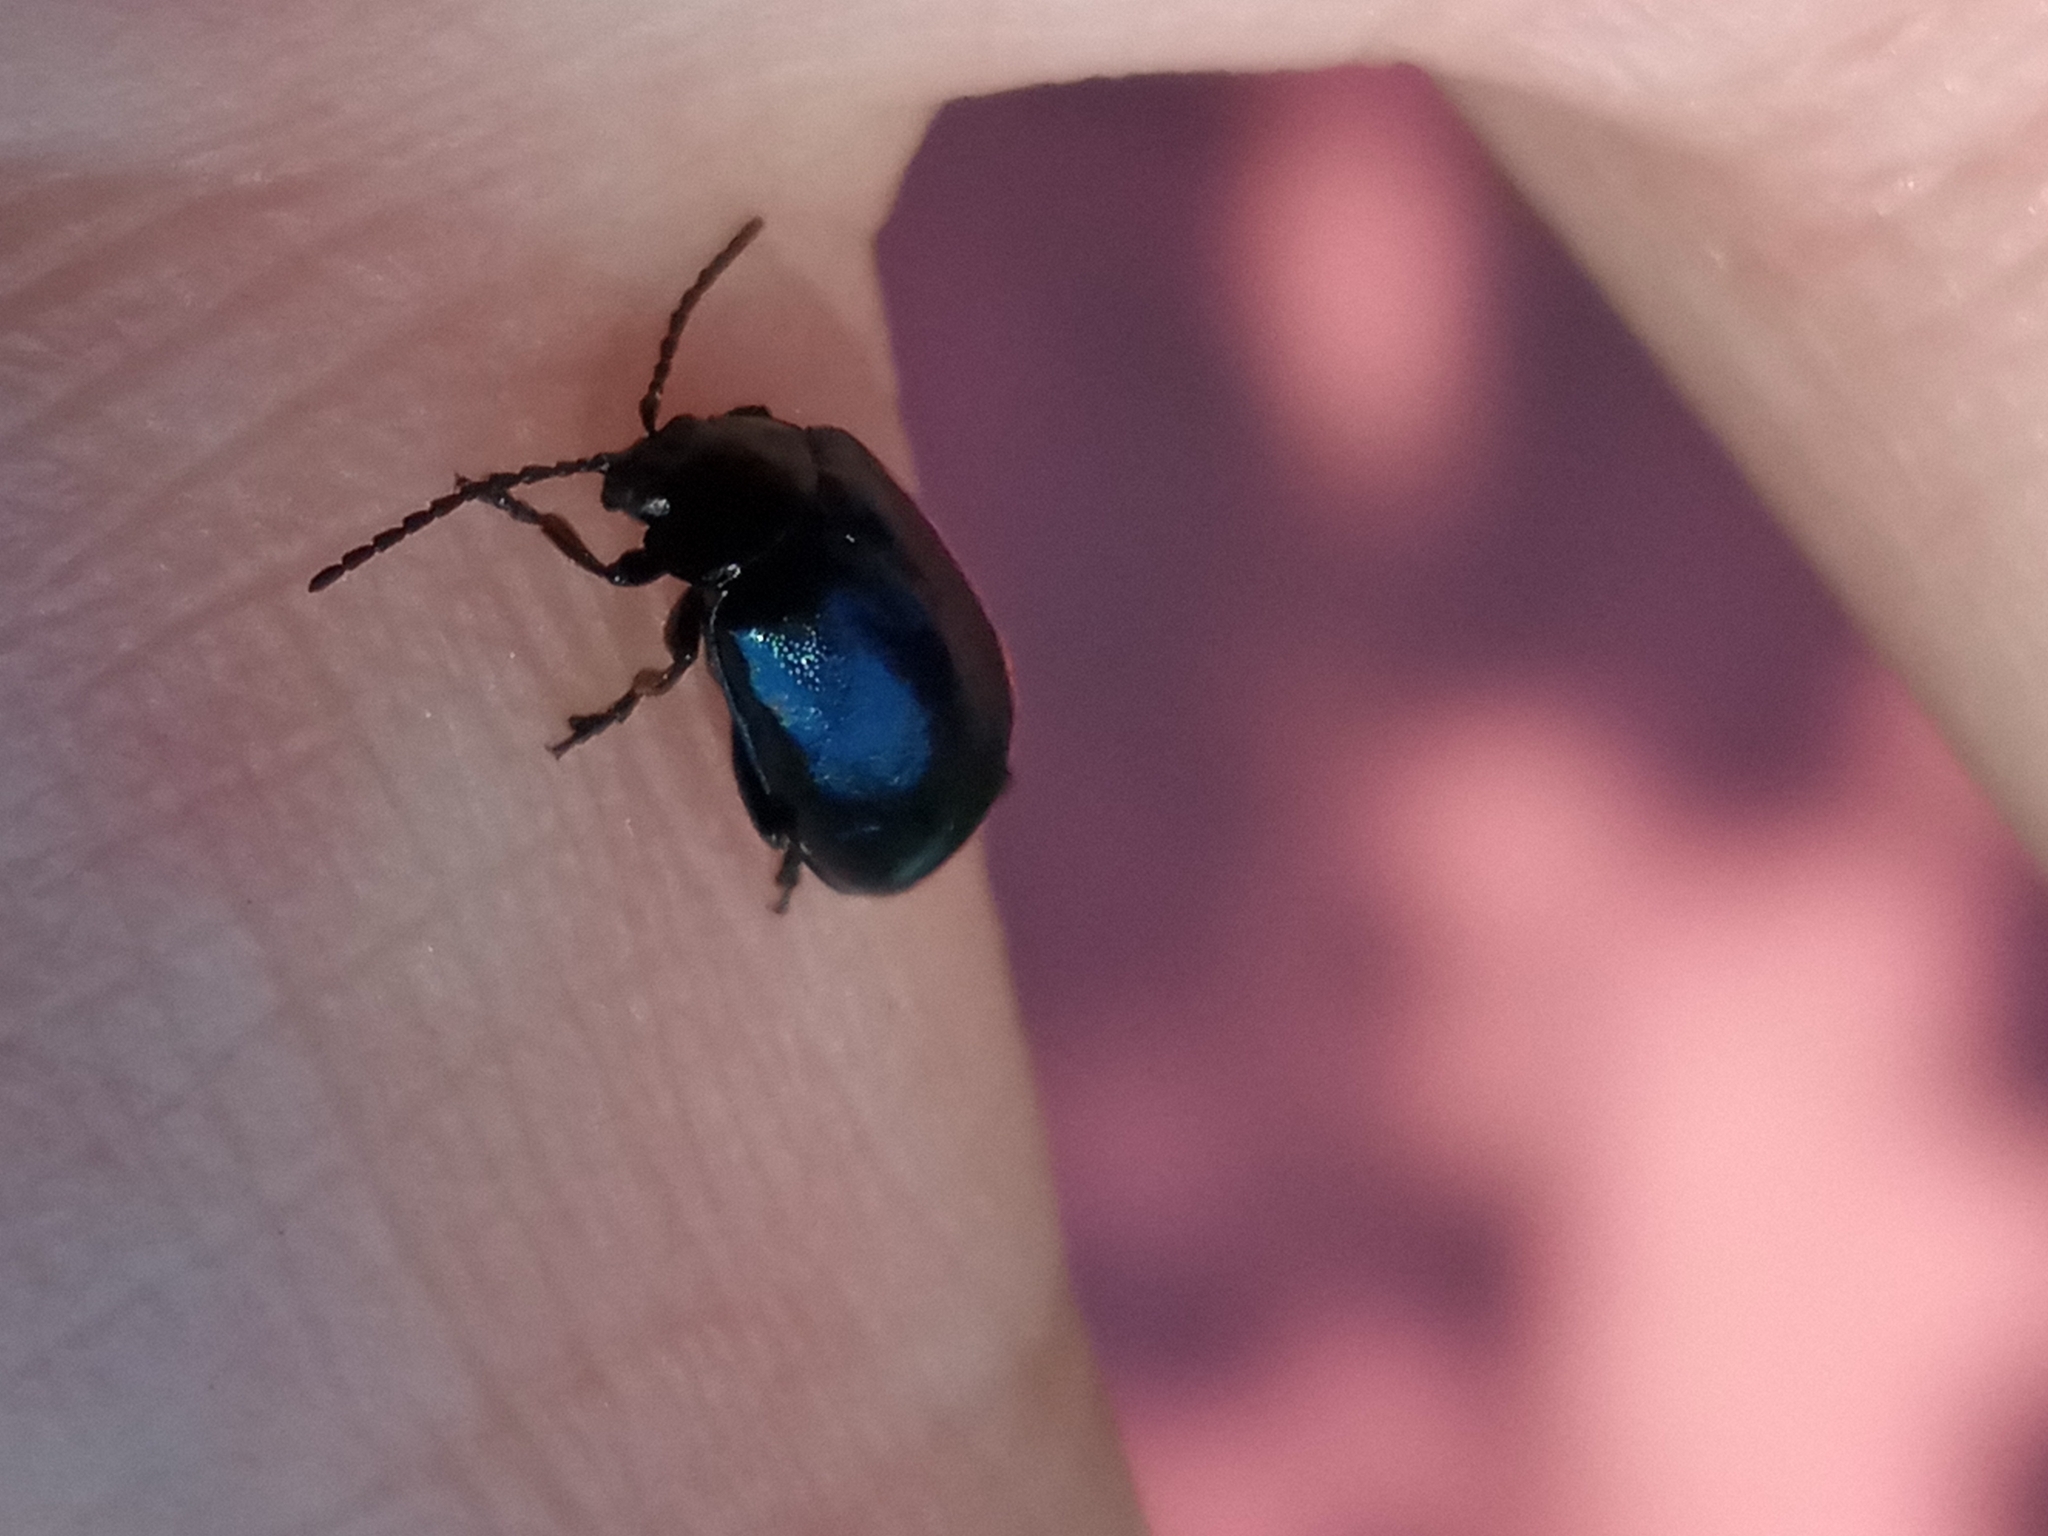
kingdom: Animalia
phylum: Arthropoda
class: Insecta
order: Coleoptera
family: Chrysomelidae
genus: Agelastica
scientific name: Agelastica alni
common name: Alder leaf beetle
